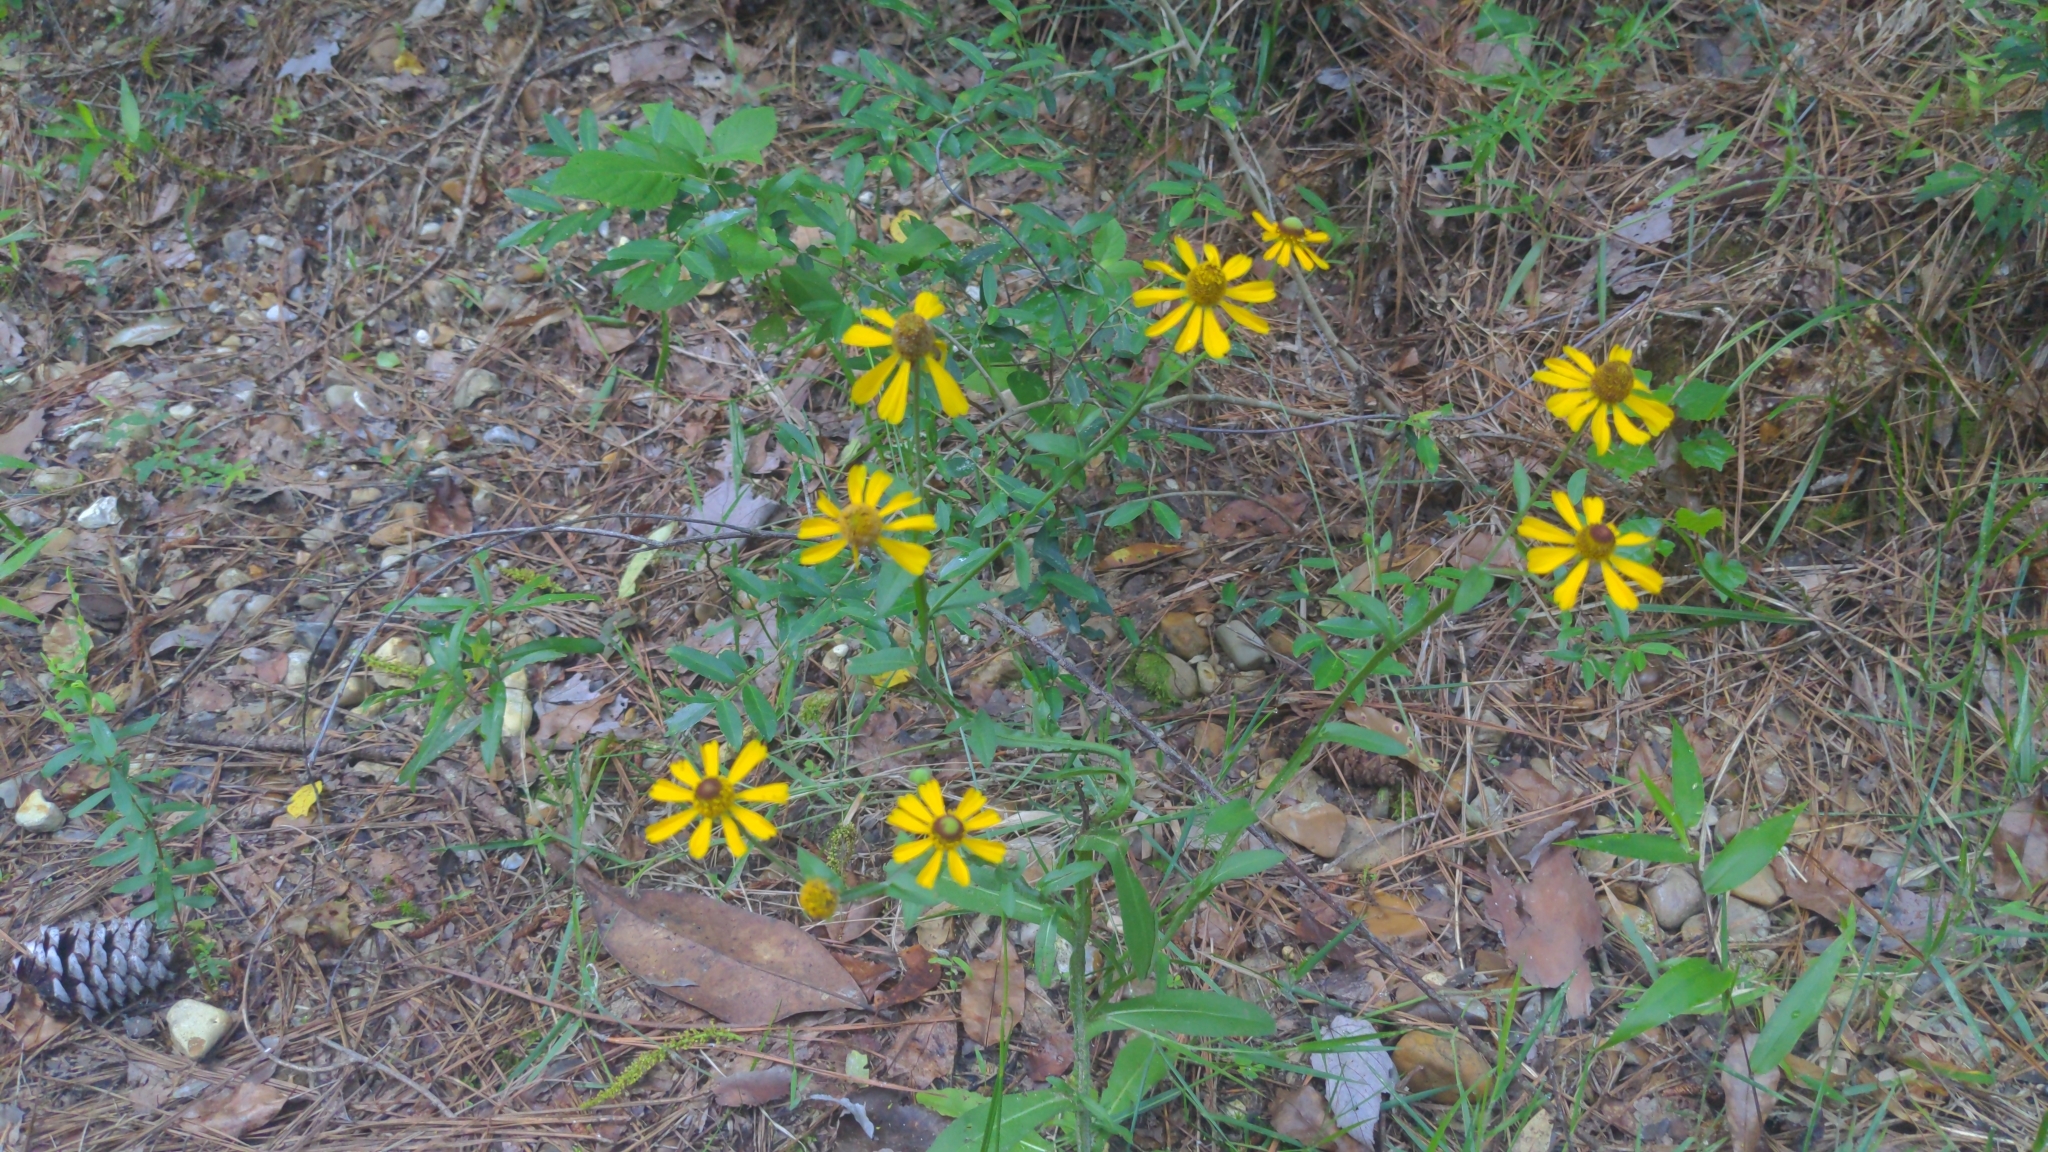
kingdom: Plantae
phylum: Tracheophyta
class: Magnoliopsida
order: Asterales
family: Asteraceae
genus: Helenium
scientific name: Helenium flexuosum
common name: Naked-flowered sneezeweed
